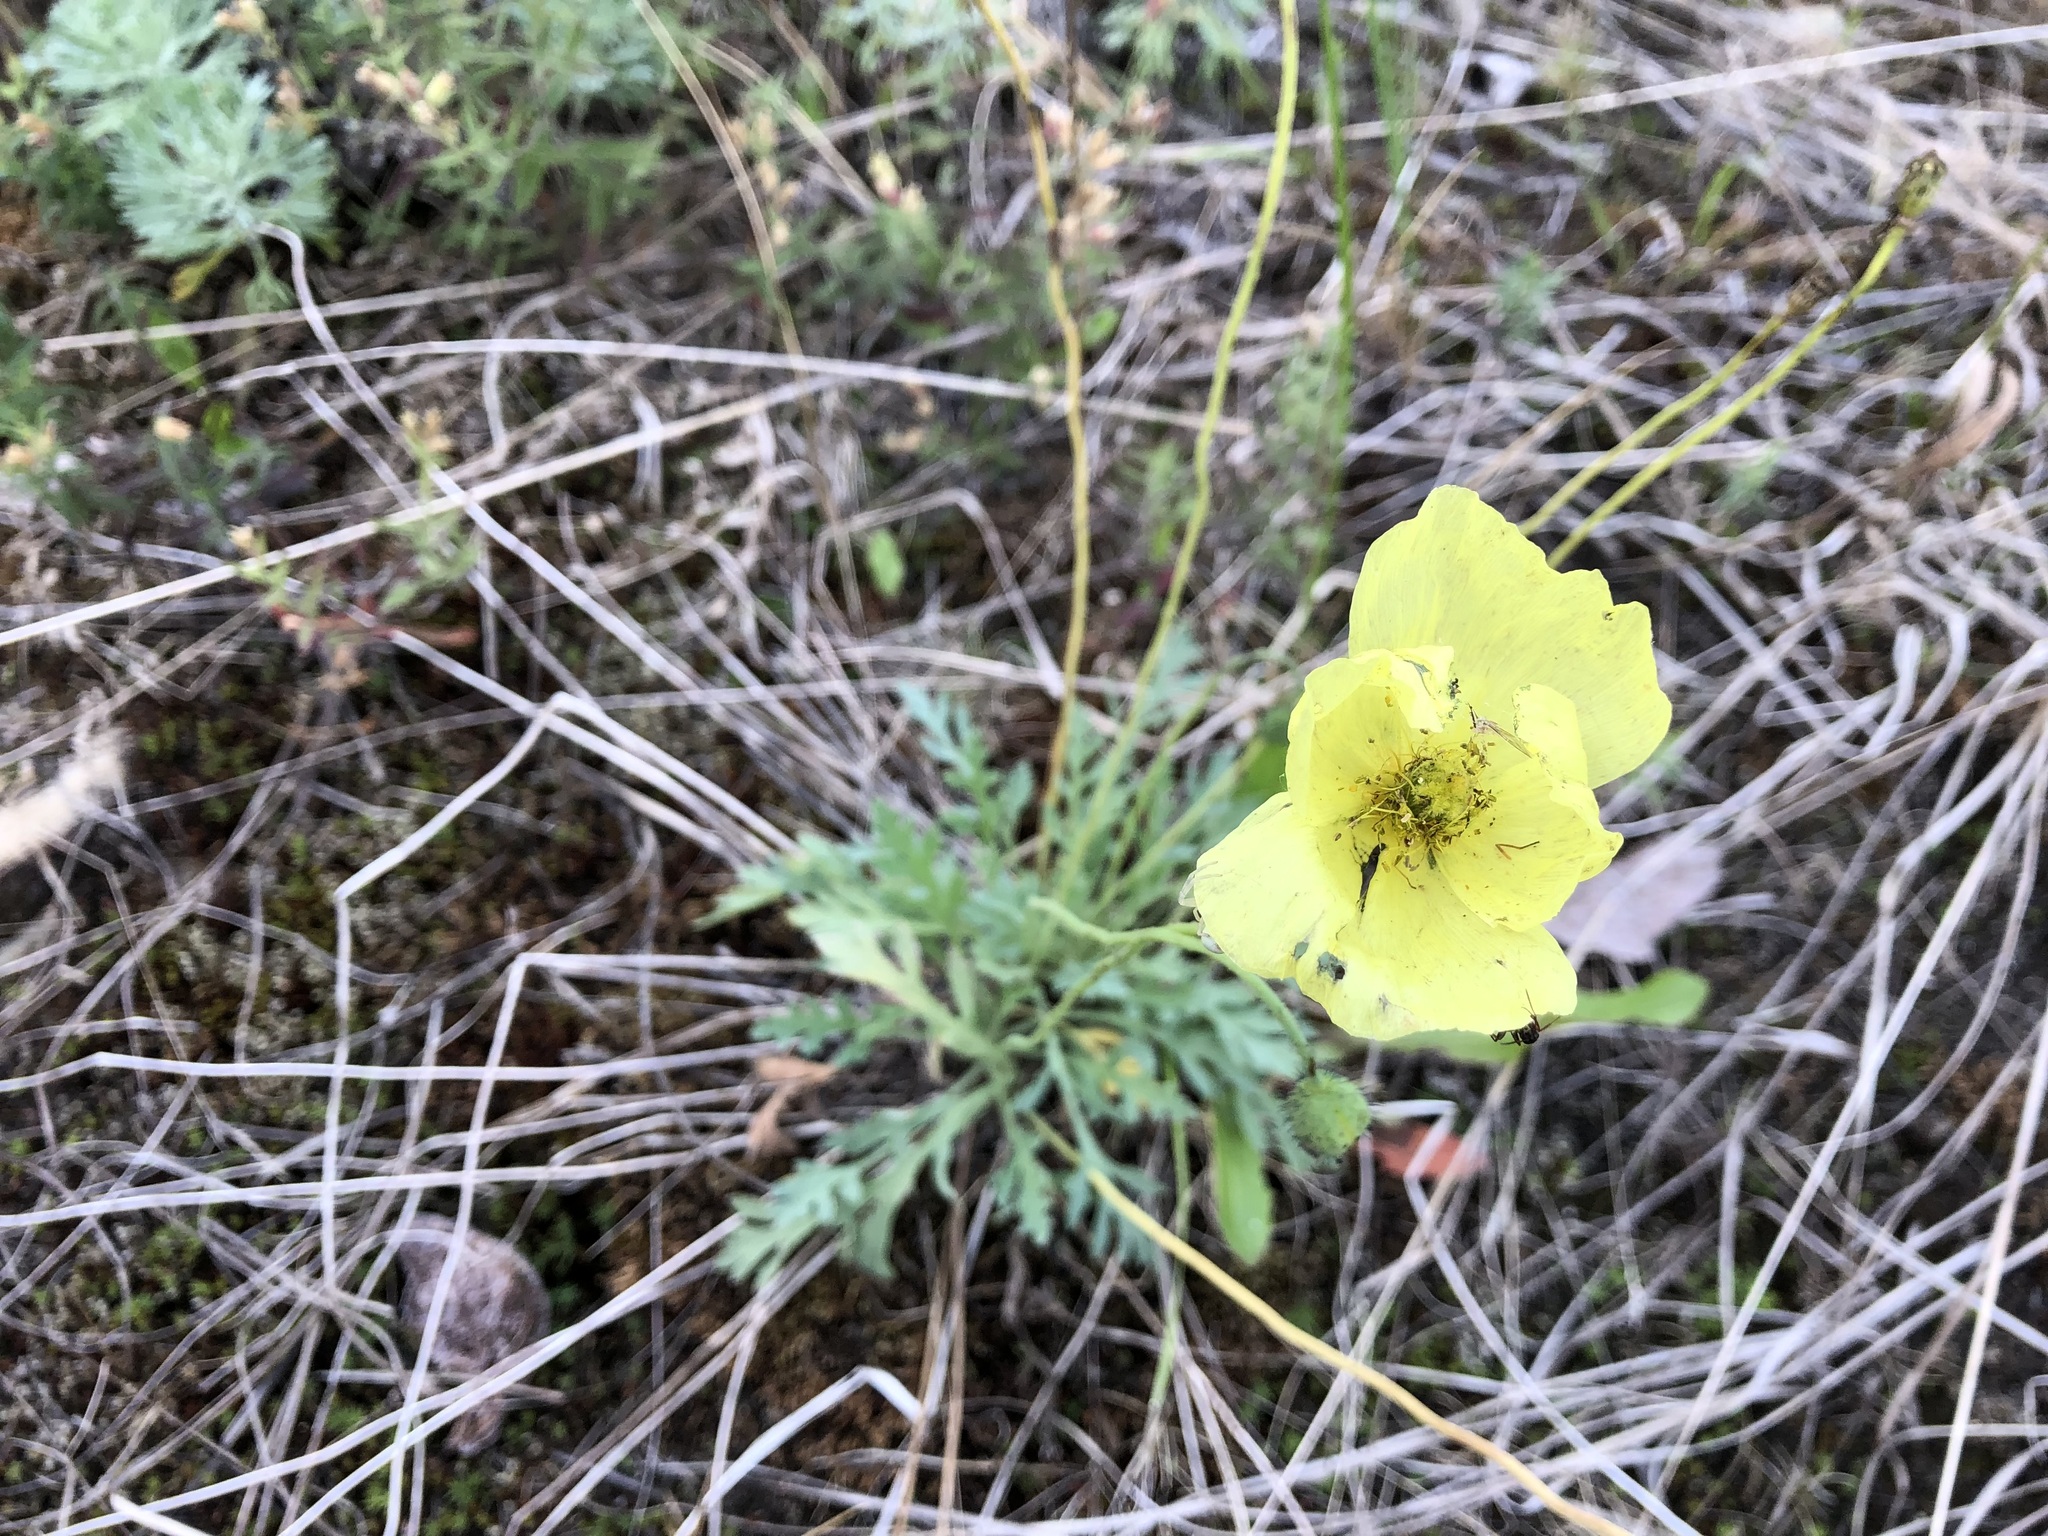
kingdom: Plantae
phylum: Tracheophyta
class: Magnoliopsida
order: Ranunculales
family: Papaveraceae
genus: Papaver
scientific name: Papaver nudicaule
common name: Arctic poppy
